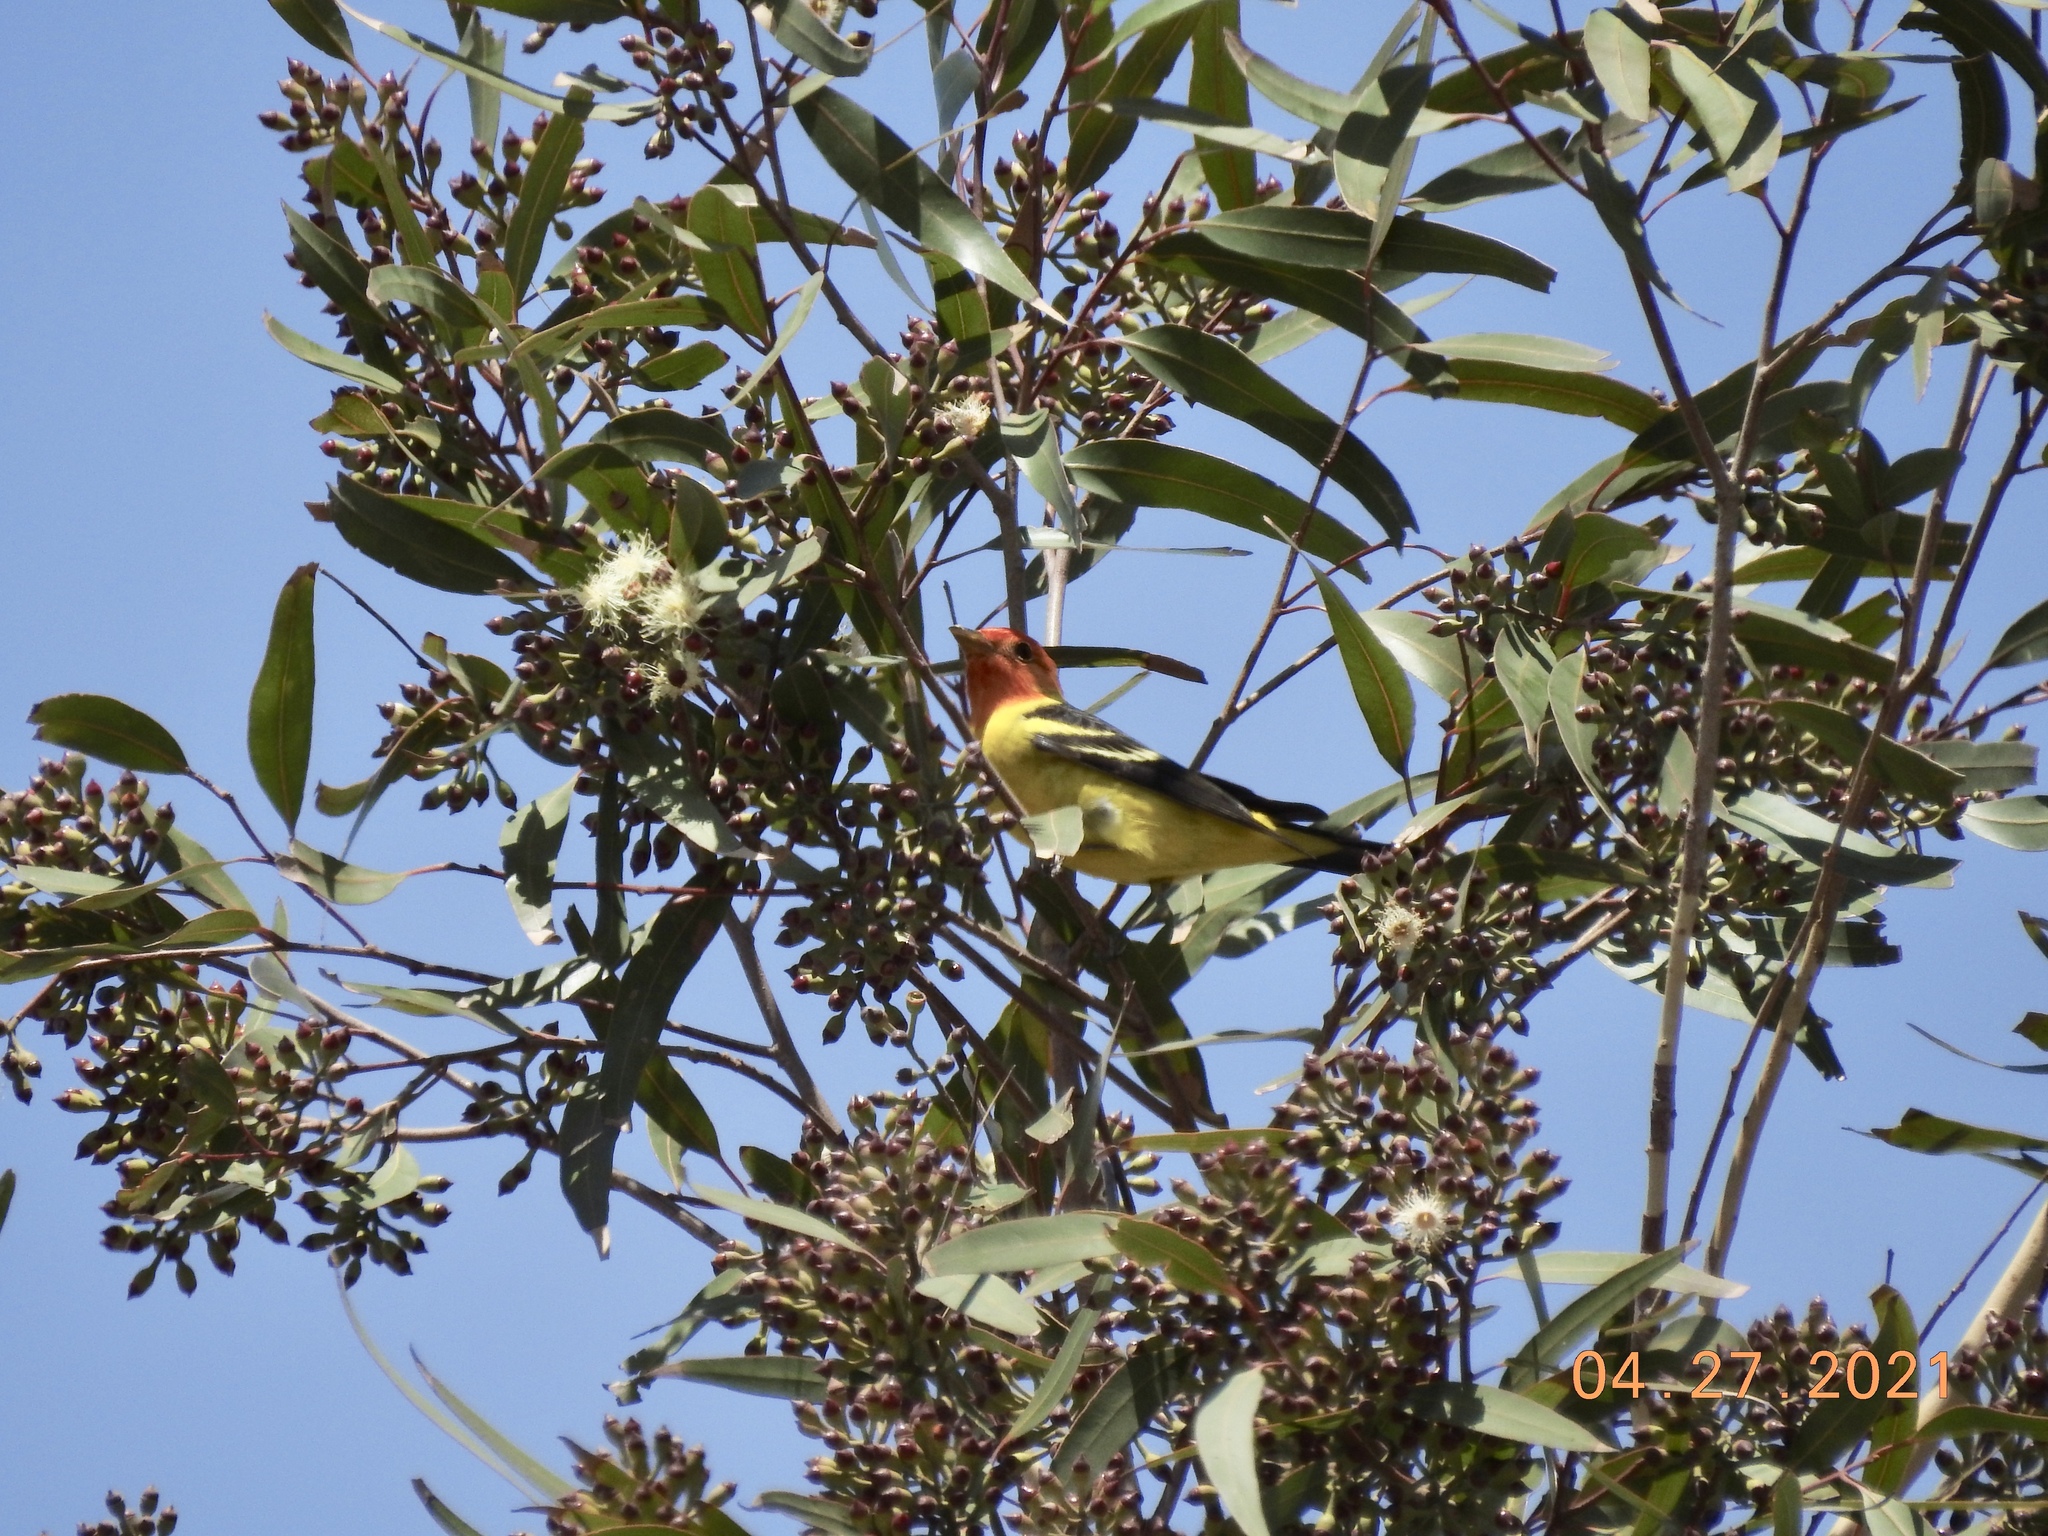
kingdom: Animalia
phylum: Chordata
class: Aves
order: Passeriformes
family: Cardinalidae
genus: Piranga
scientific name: Piranga ludoviciana
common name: Western tanager
